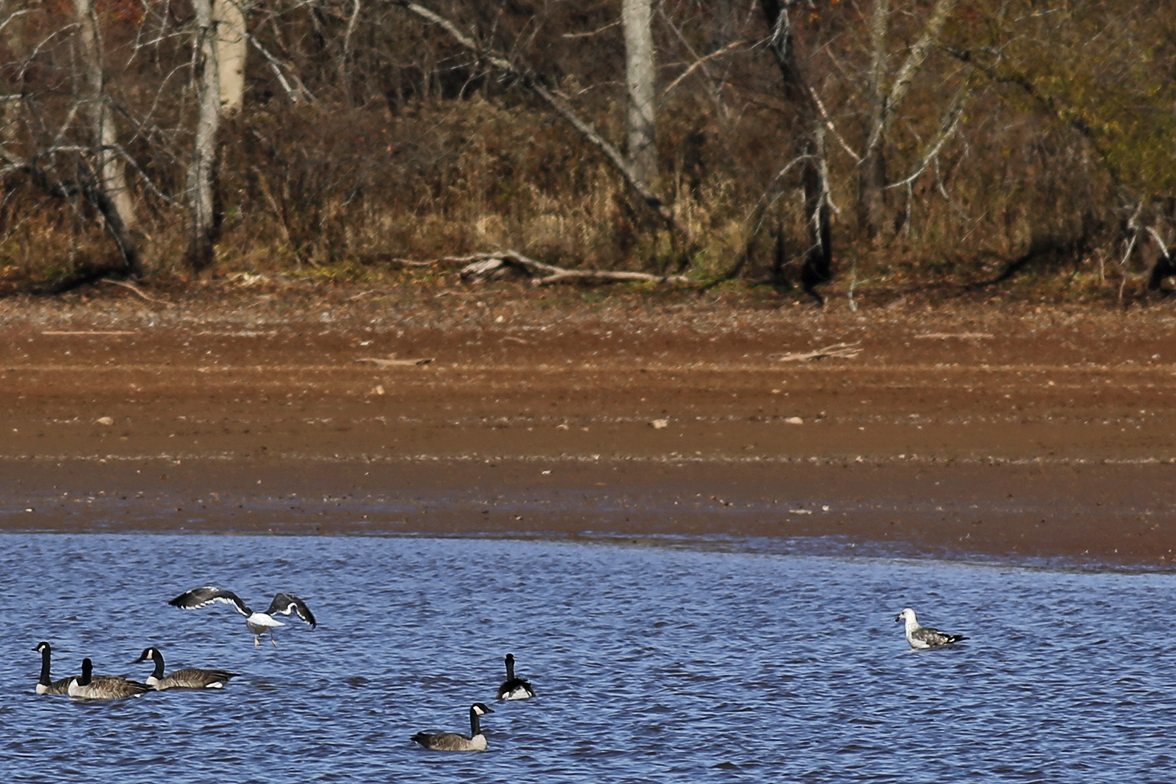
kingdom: Animalia
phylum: Chordata
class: Aves
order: Charadriiformes
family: Laridae
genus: Larus
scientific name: Larus fuscus
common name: Lesser black-backed gull
